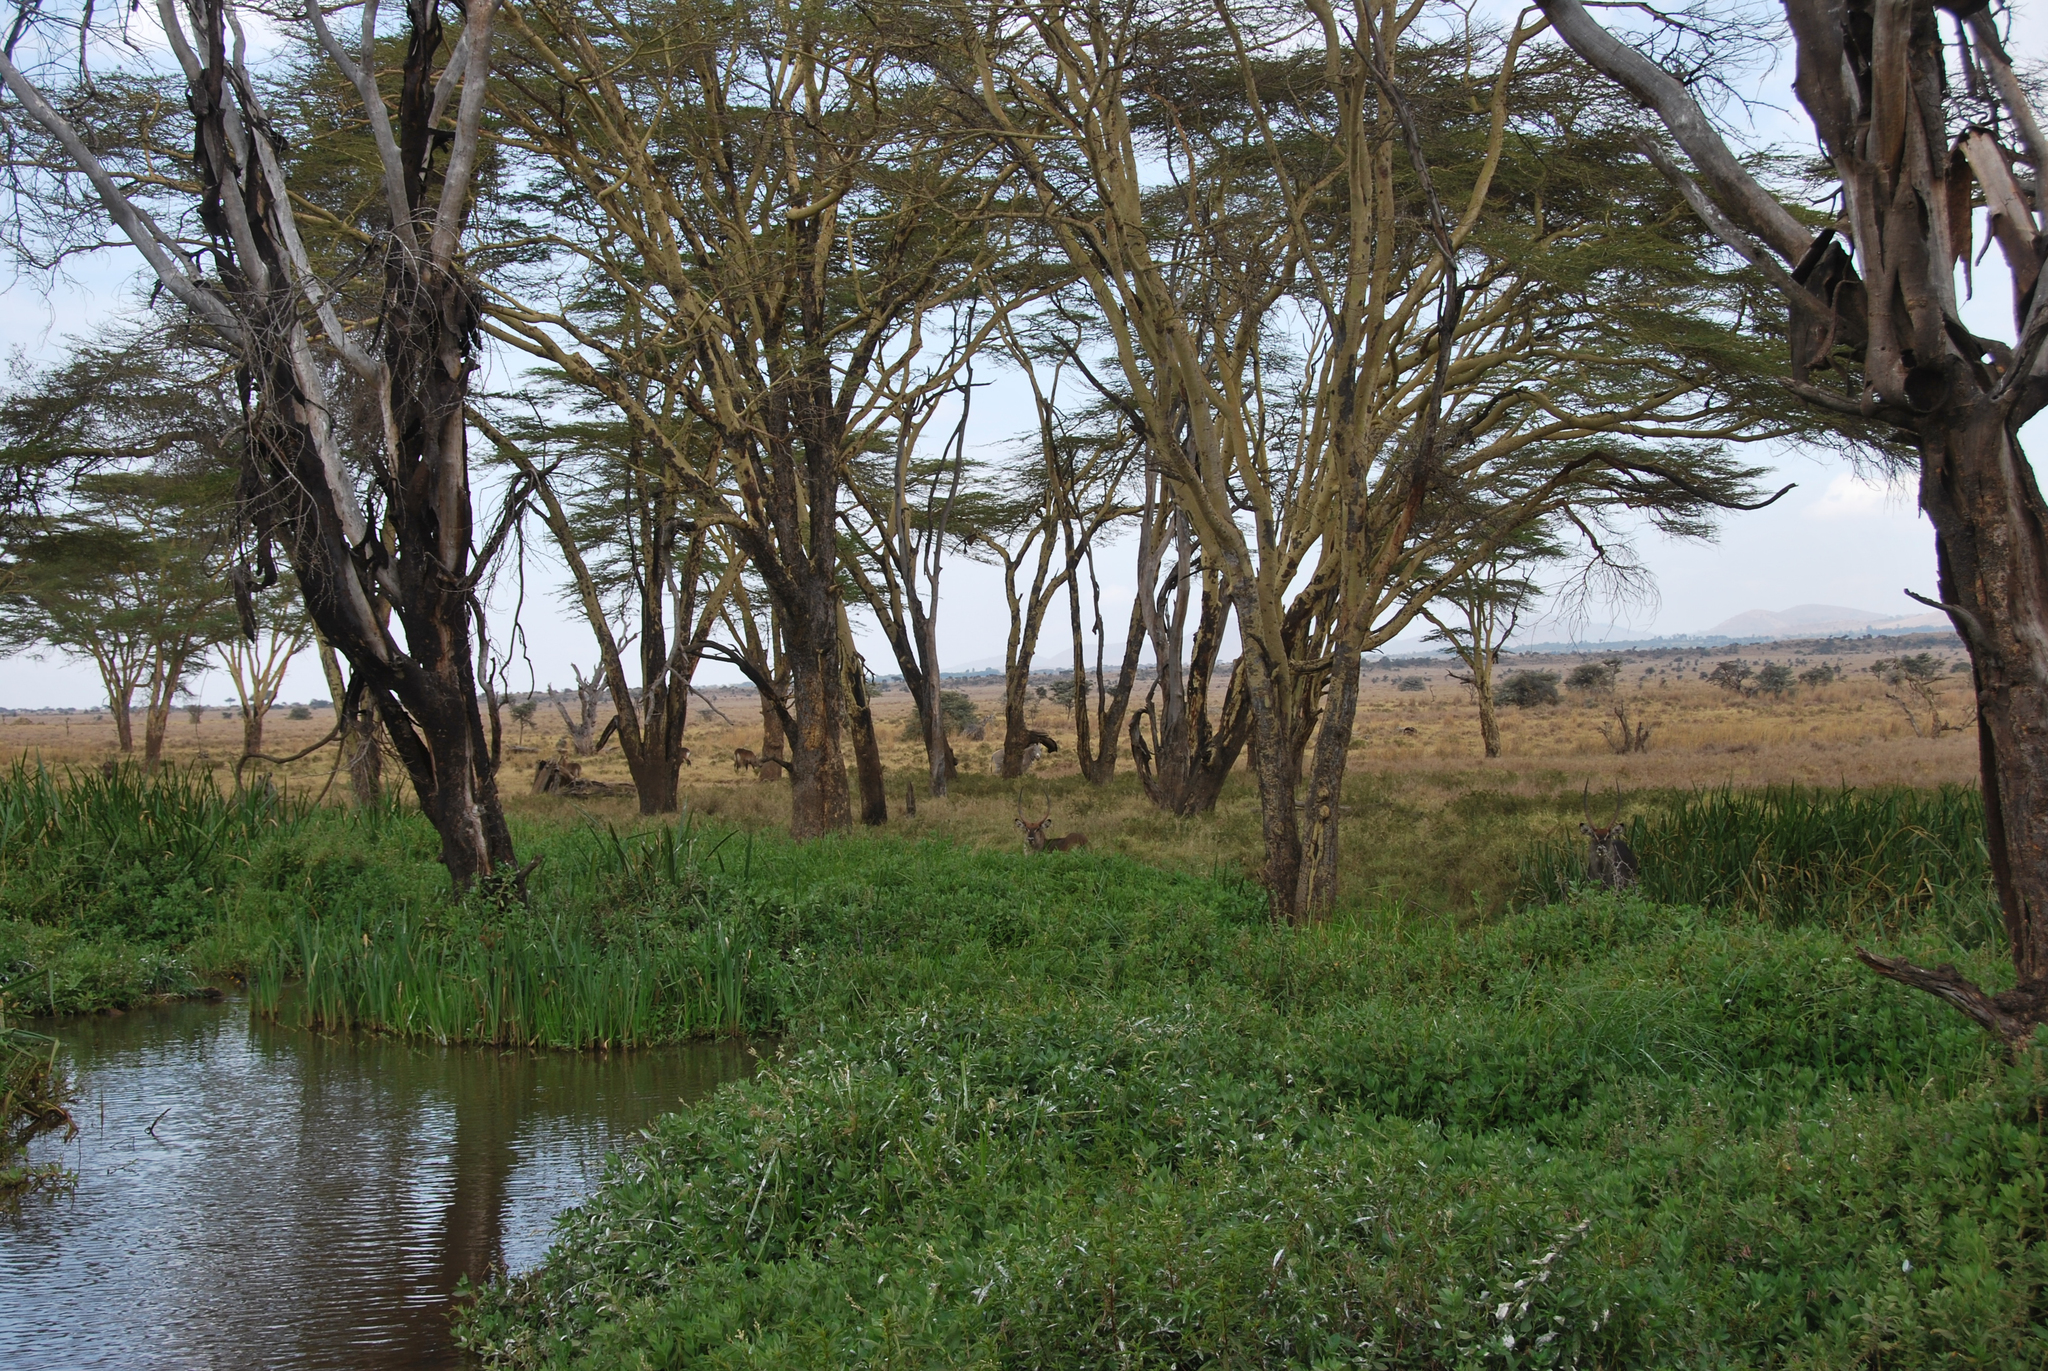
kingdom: Plantae
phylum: Tracheophyta
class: Magnoliopsida
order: Fabales
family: Fabaceae
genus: Vachellia
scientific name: Vachellia xanthophloea
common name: Fever tree
